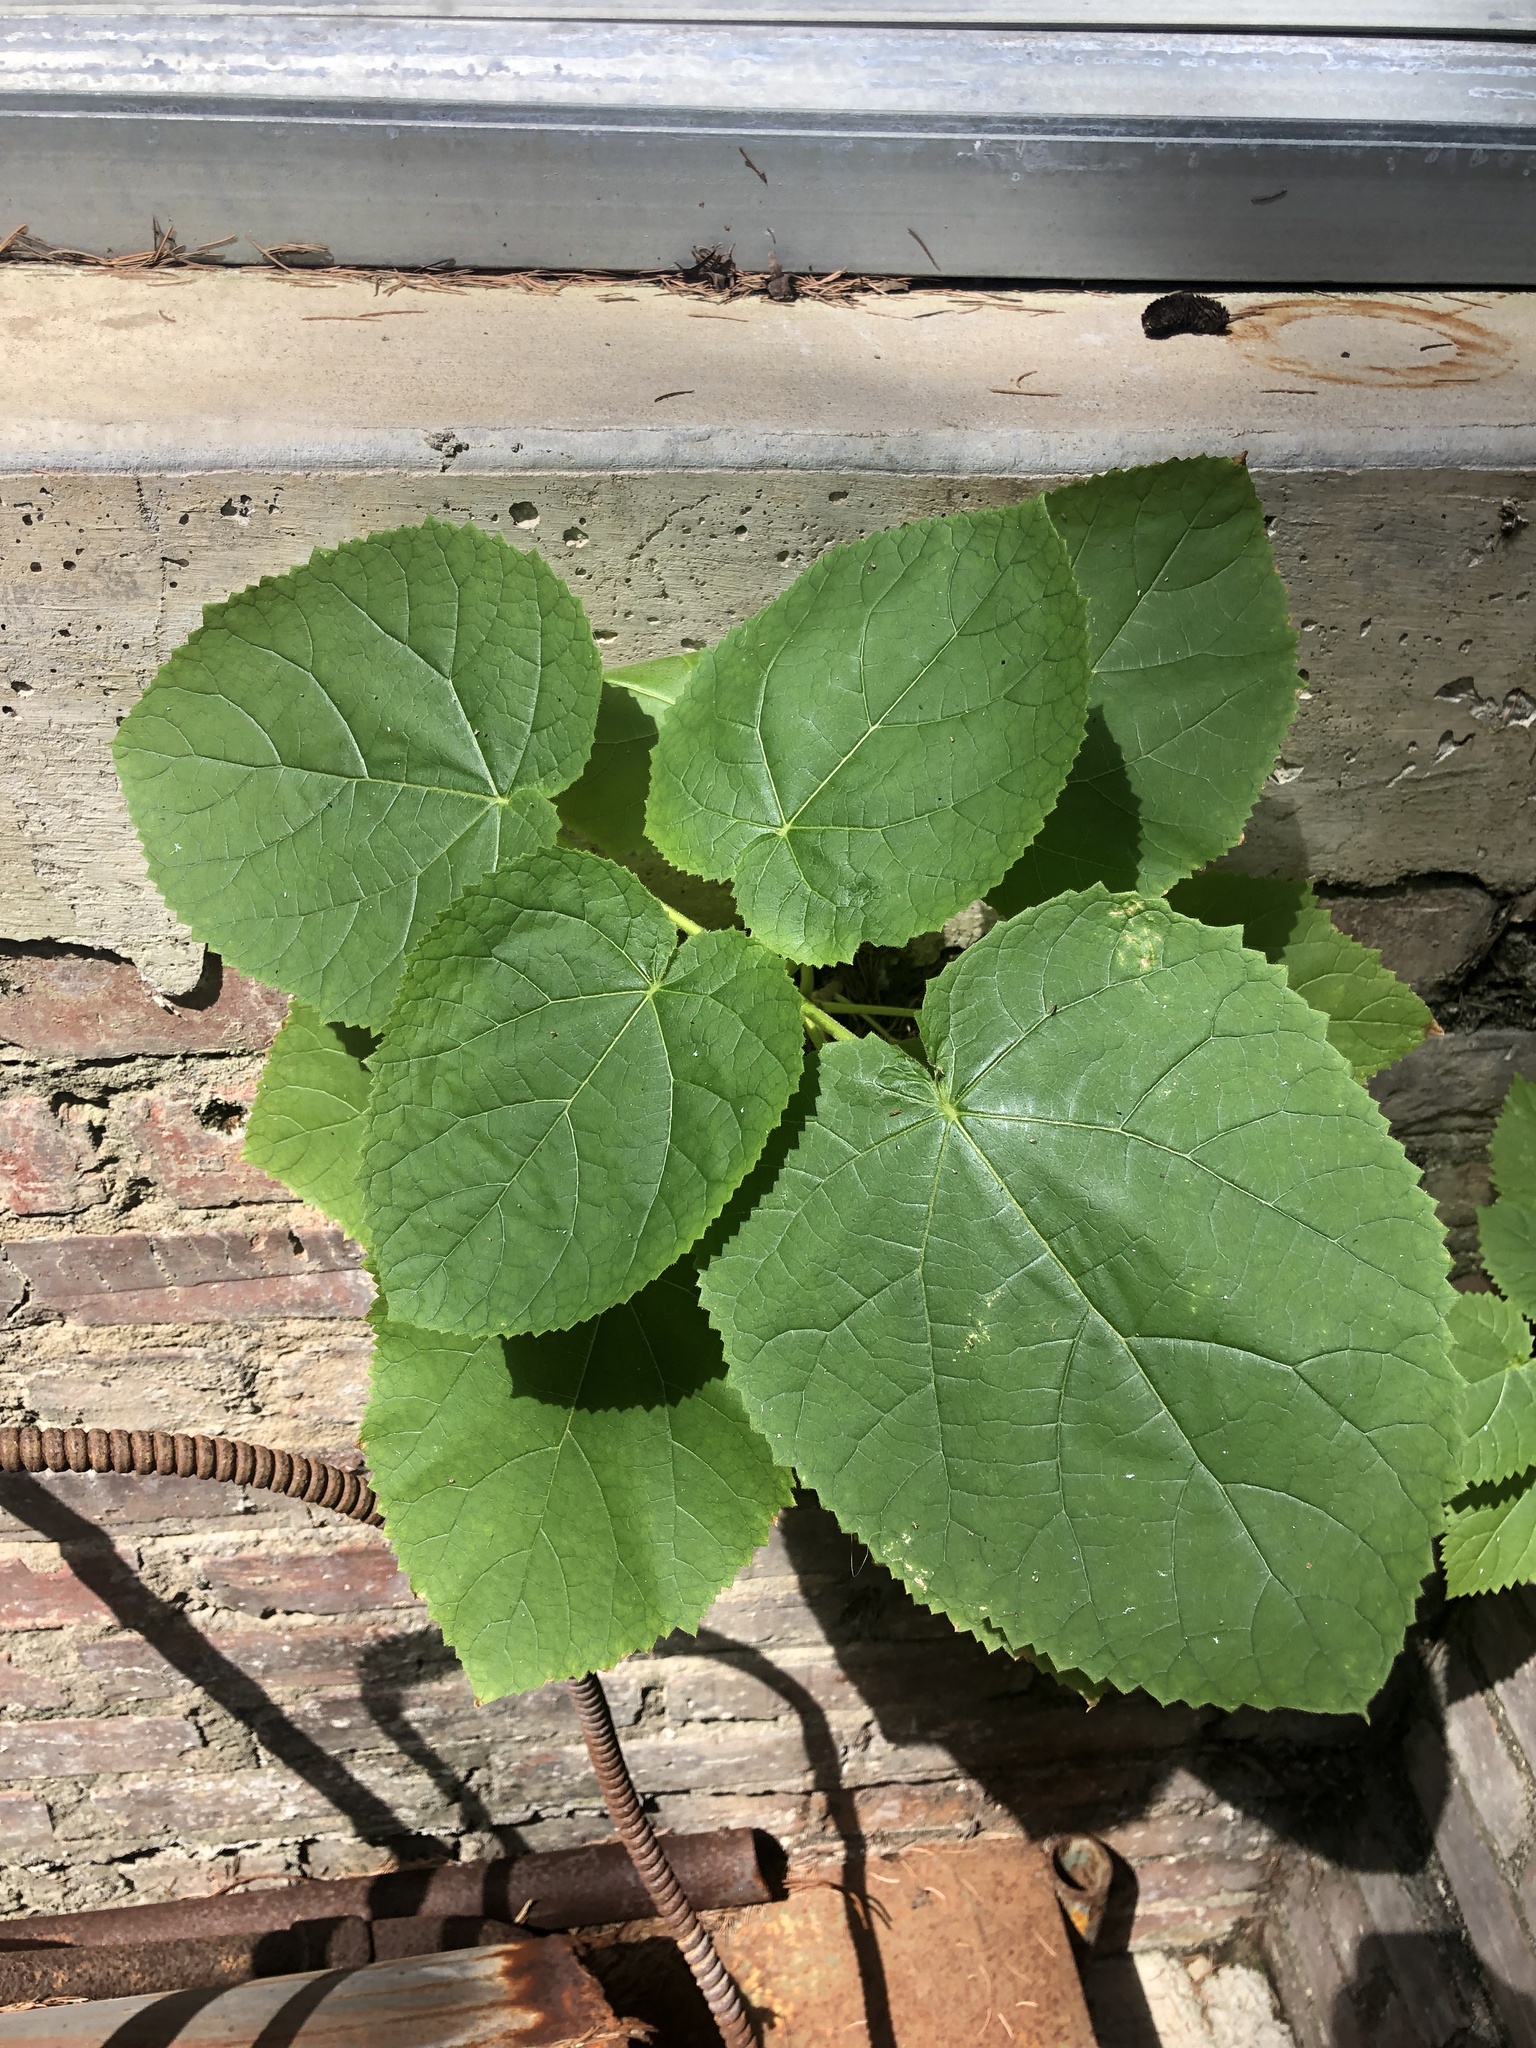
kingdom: Plantae
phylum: Tracheophyta
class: Magnoliopsida
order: Lamiales
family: Paulowniaceae
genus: Paulownia
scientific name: Paulownia tomentosa
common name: Foxglove-tree
